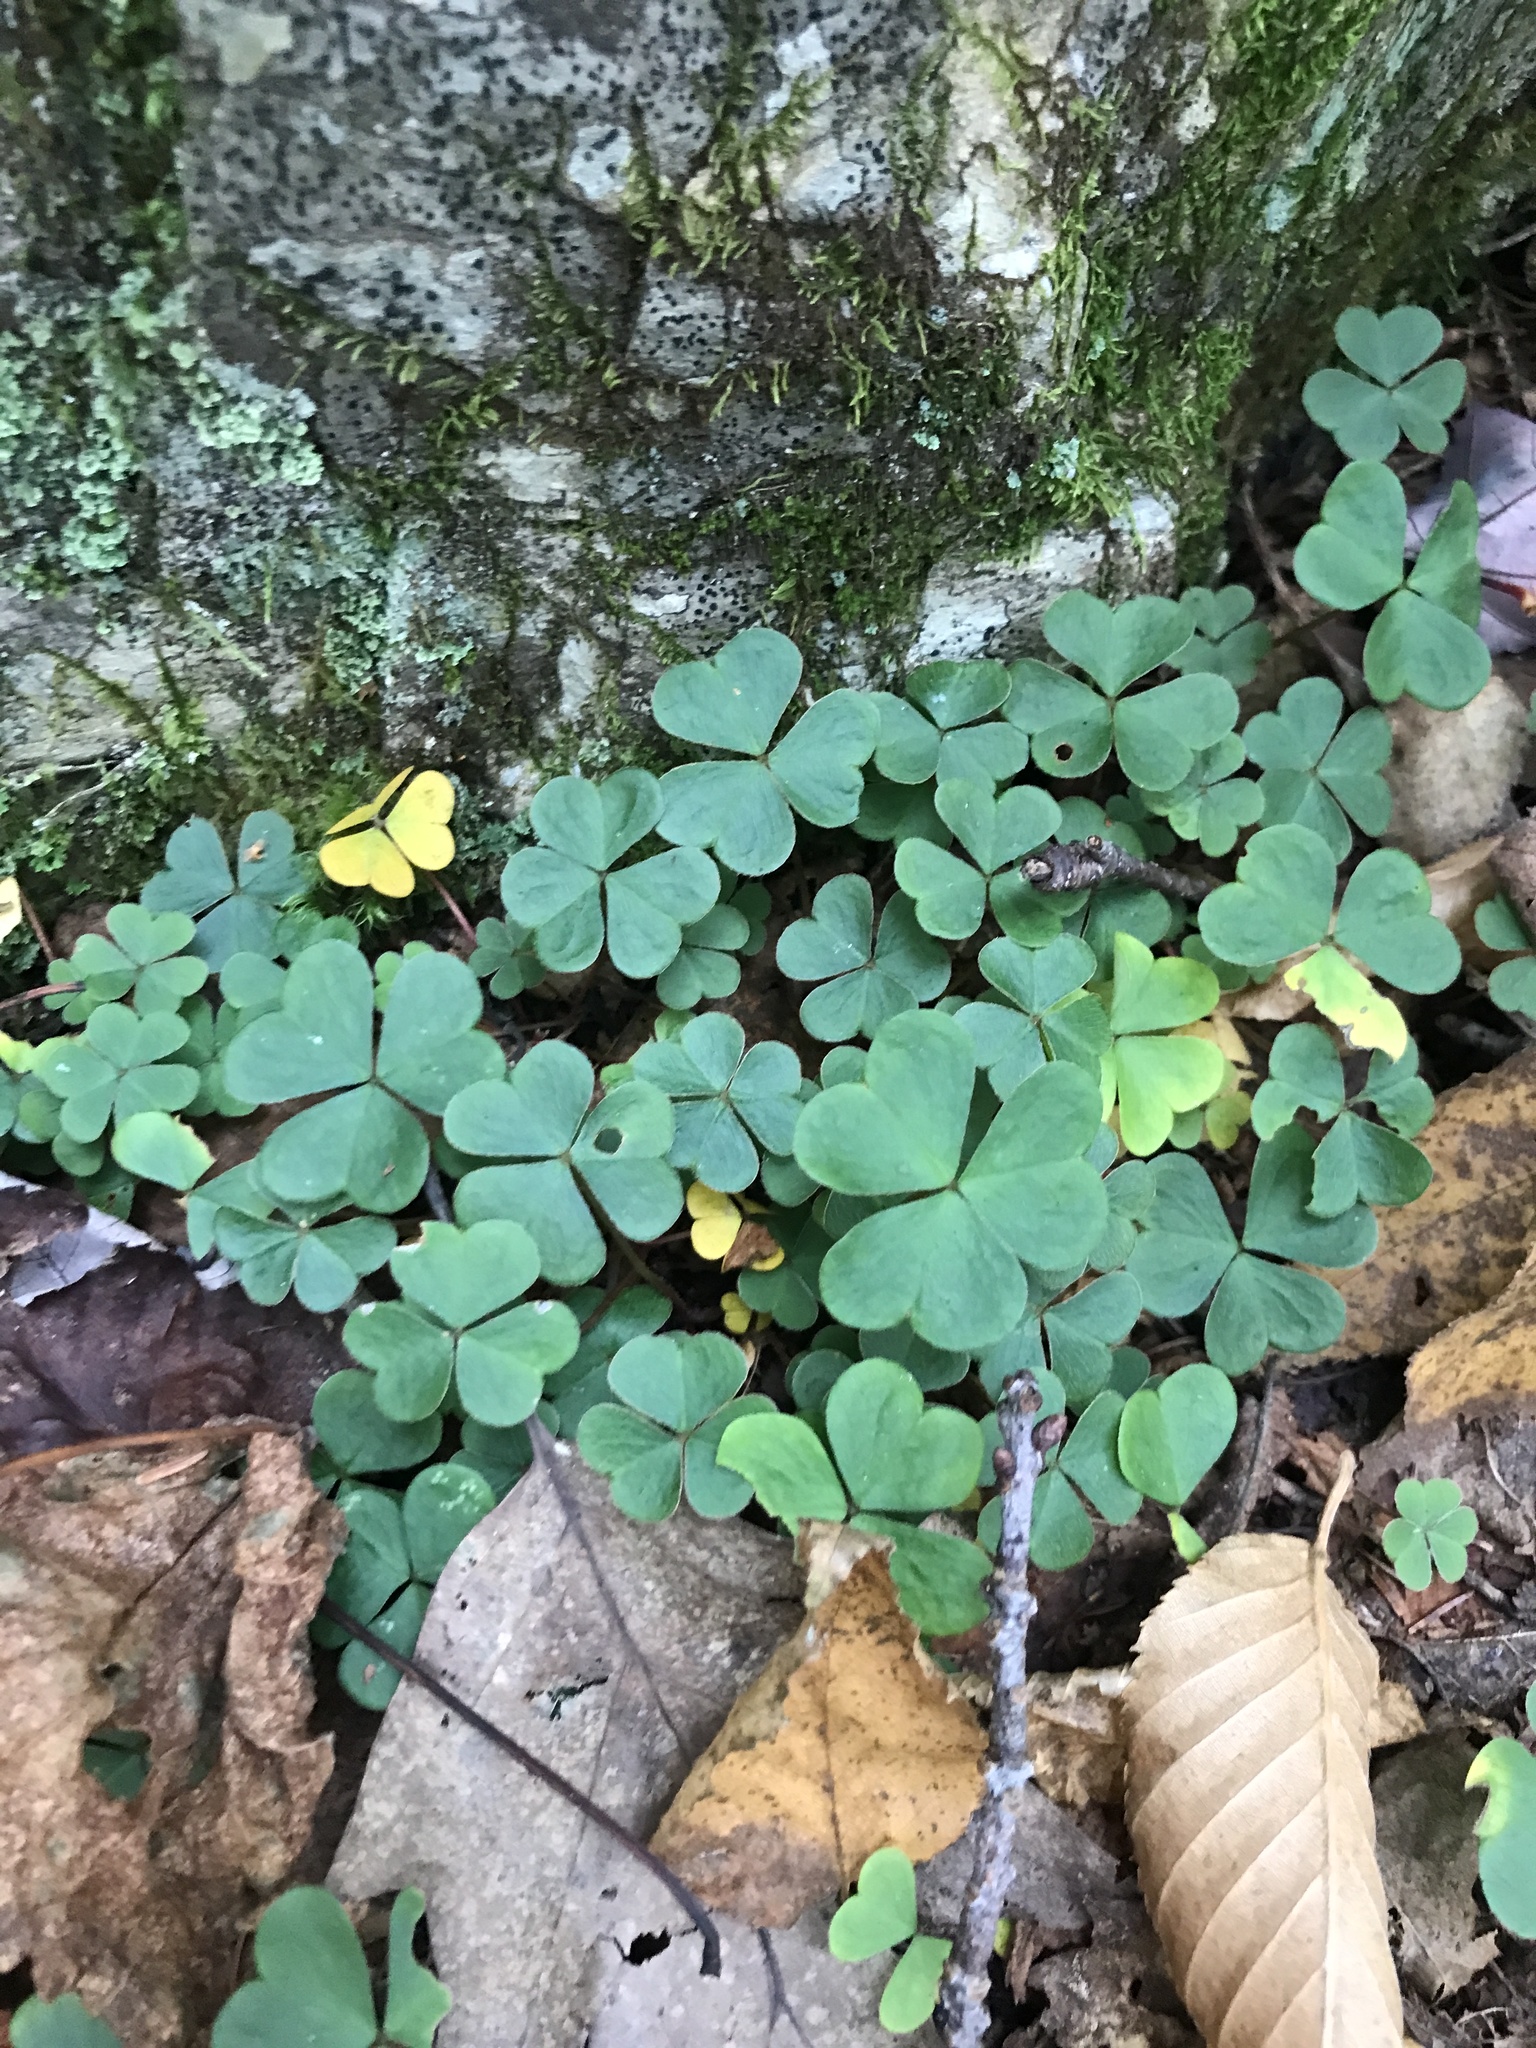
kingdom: Plantae
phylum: Tracheophyta
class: Magnoliopsida
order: Oxalidales
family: Oxalidaceae
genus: Oxalis
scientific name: Oxalis montana
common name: American wood-sorrel
